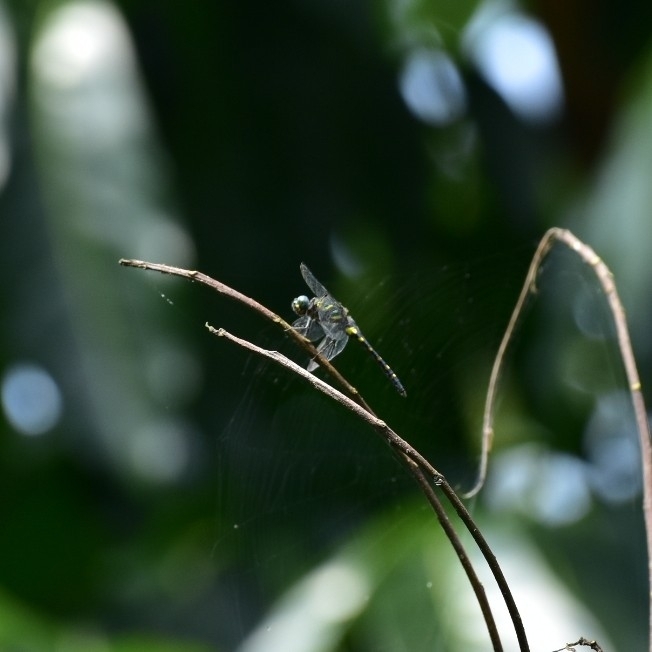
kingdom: Animalia
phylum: Arthropoda
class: Insecta
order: Odonata
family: Libellulidae
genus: Onychothemis
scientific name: Onychothemis testacea
